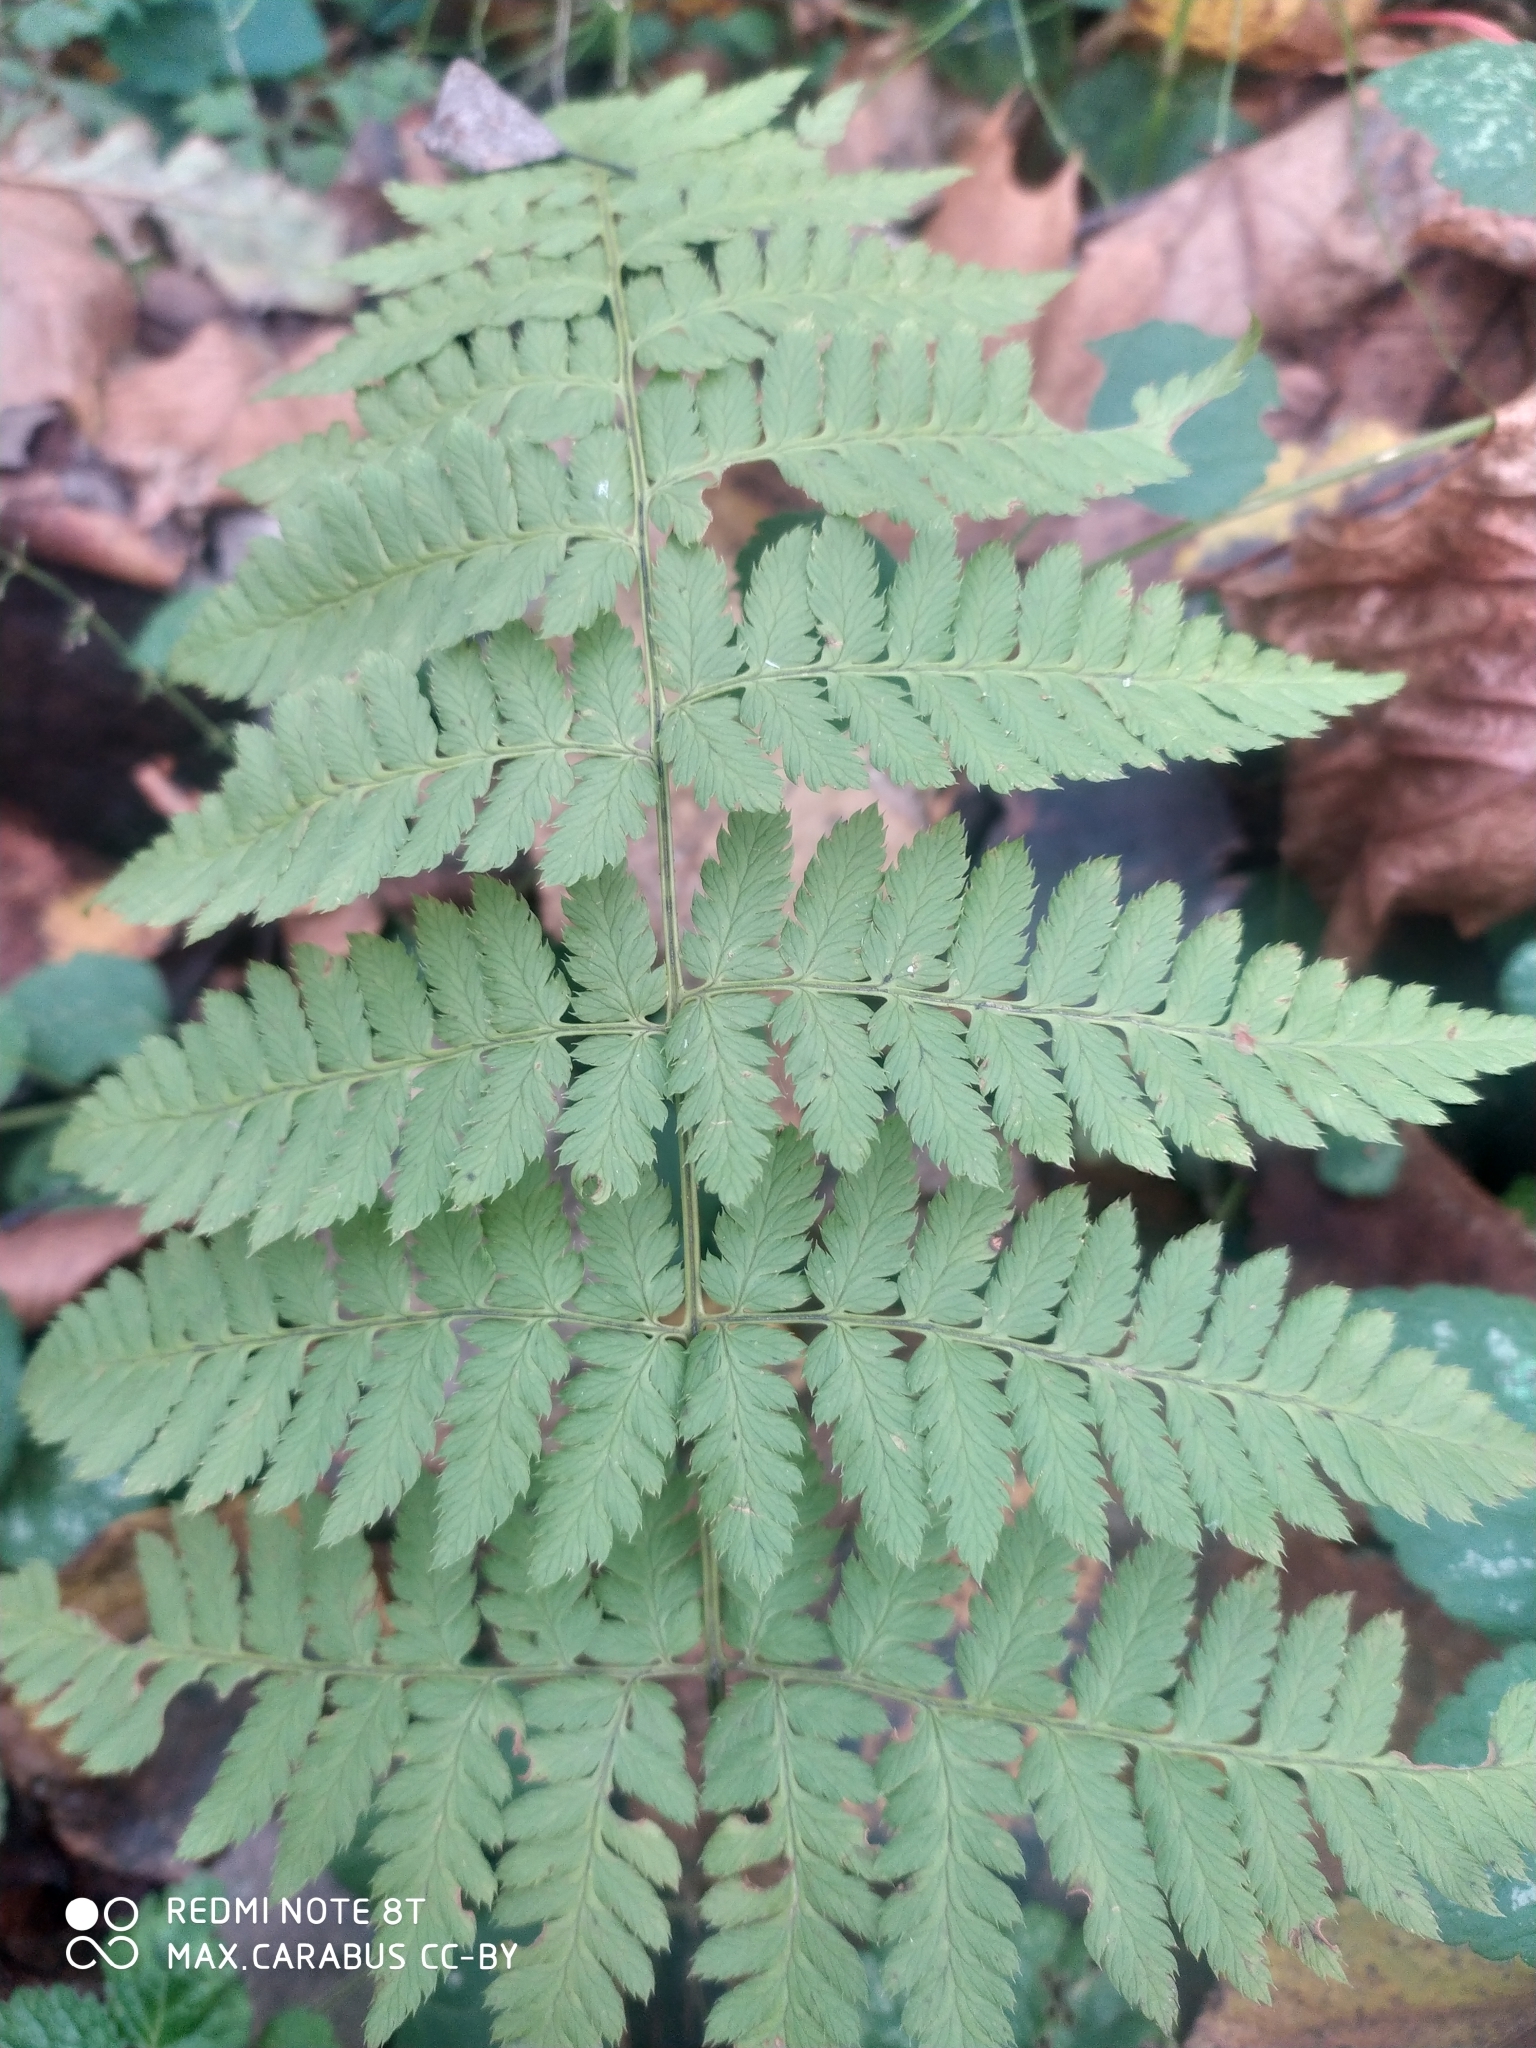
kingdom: Plantae
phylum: Tracheophyta
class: Polypodiopsida
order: Polypodiales
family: Dryopteridaceae
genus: Dryopteris
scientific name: Dryopteris carthusiana
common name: Narrow buckler-fern
